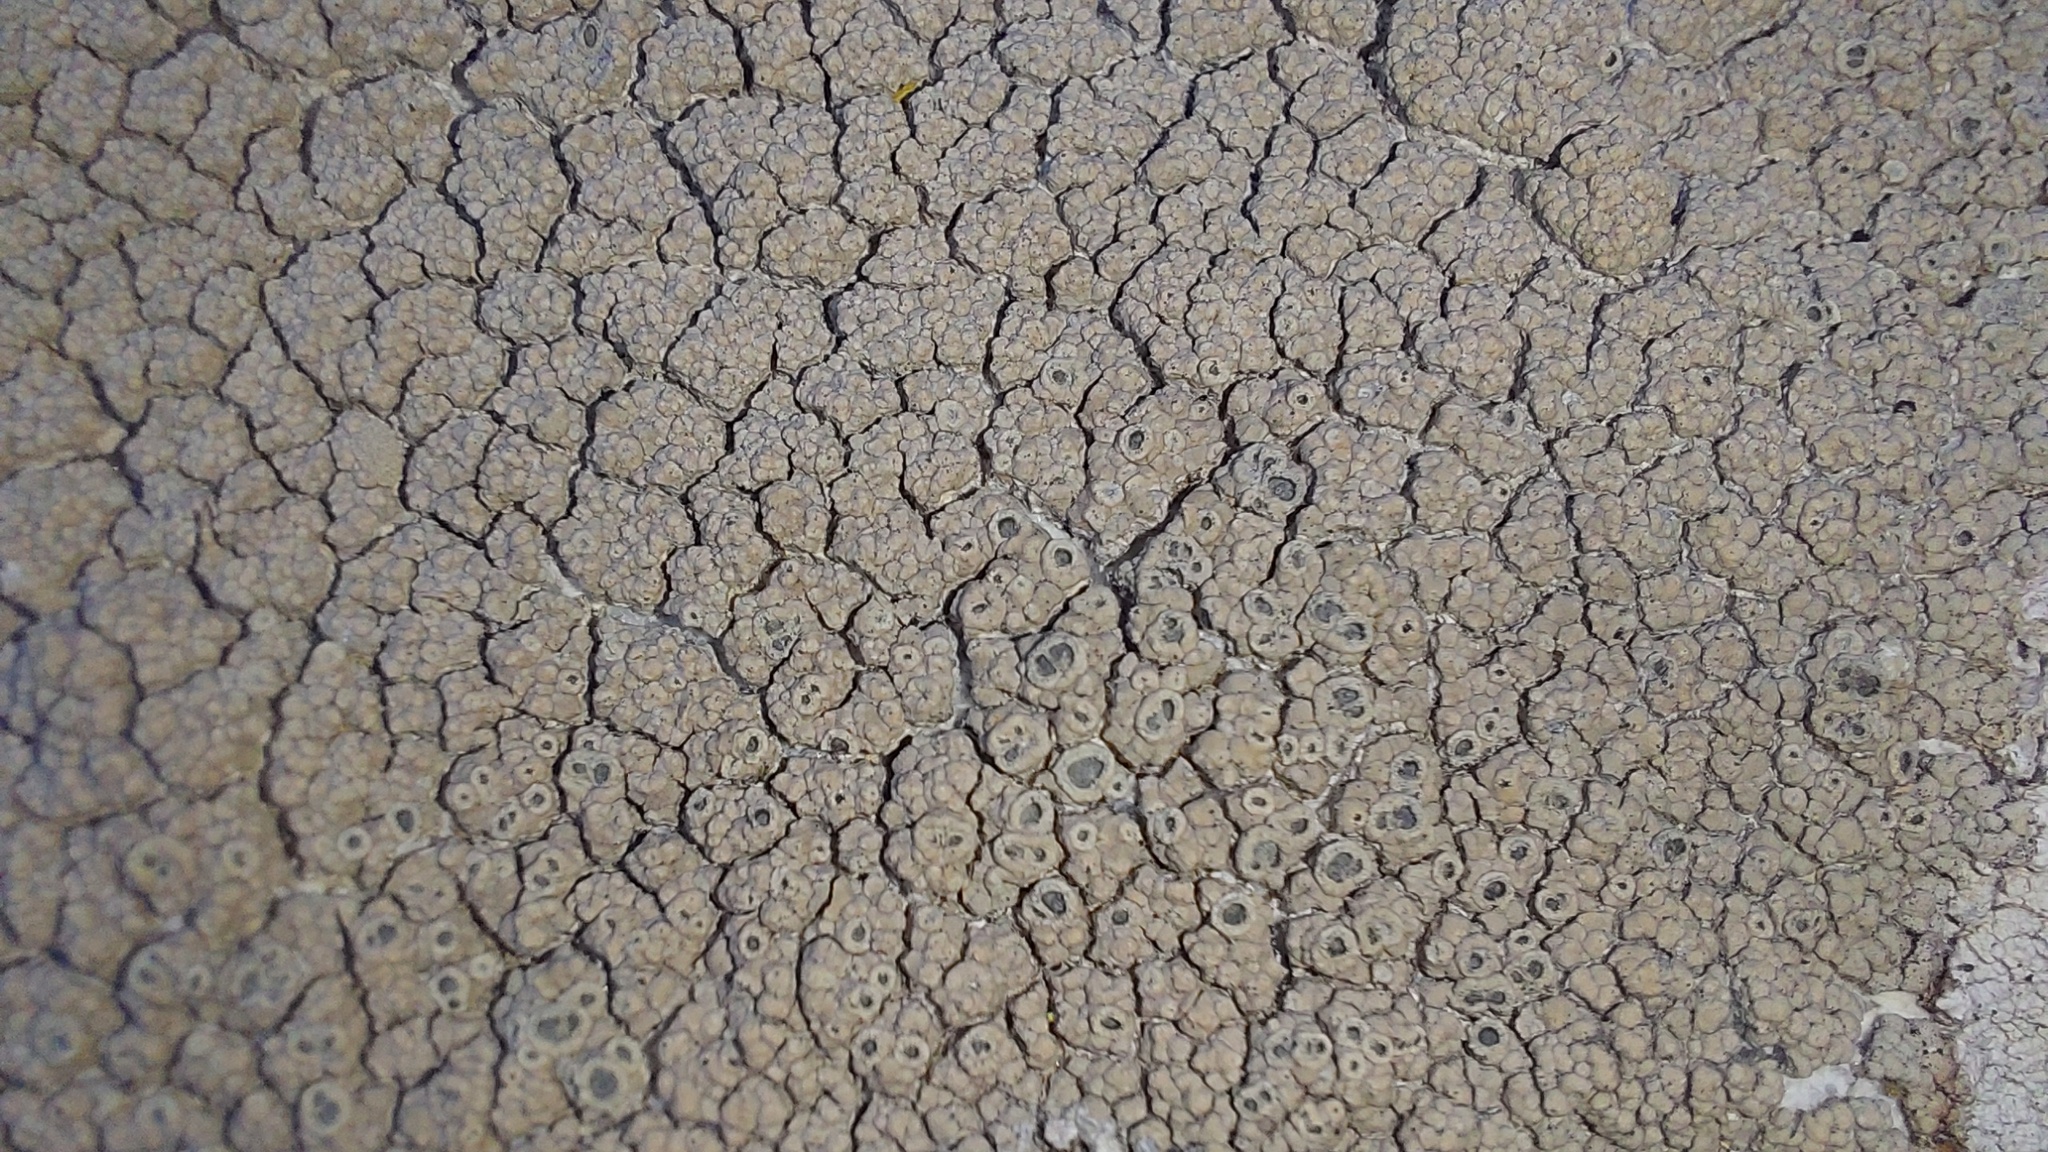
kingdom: Fungi
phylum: Ascomycota
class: Lecanoromycetes
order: Ostropales
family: Graphidaceae
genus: Diploschistes
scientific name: Diploschistes scruposus
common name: Crater lichen
